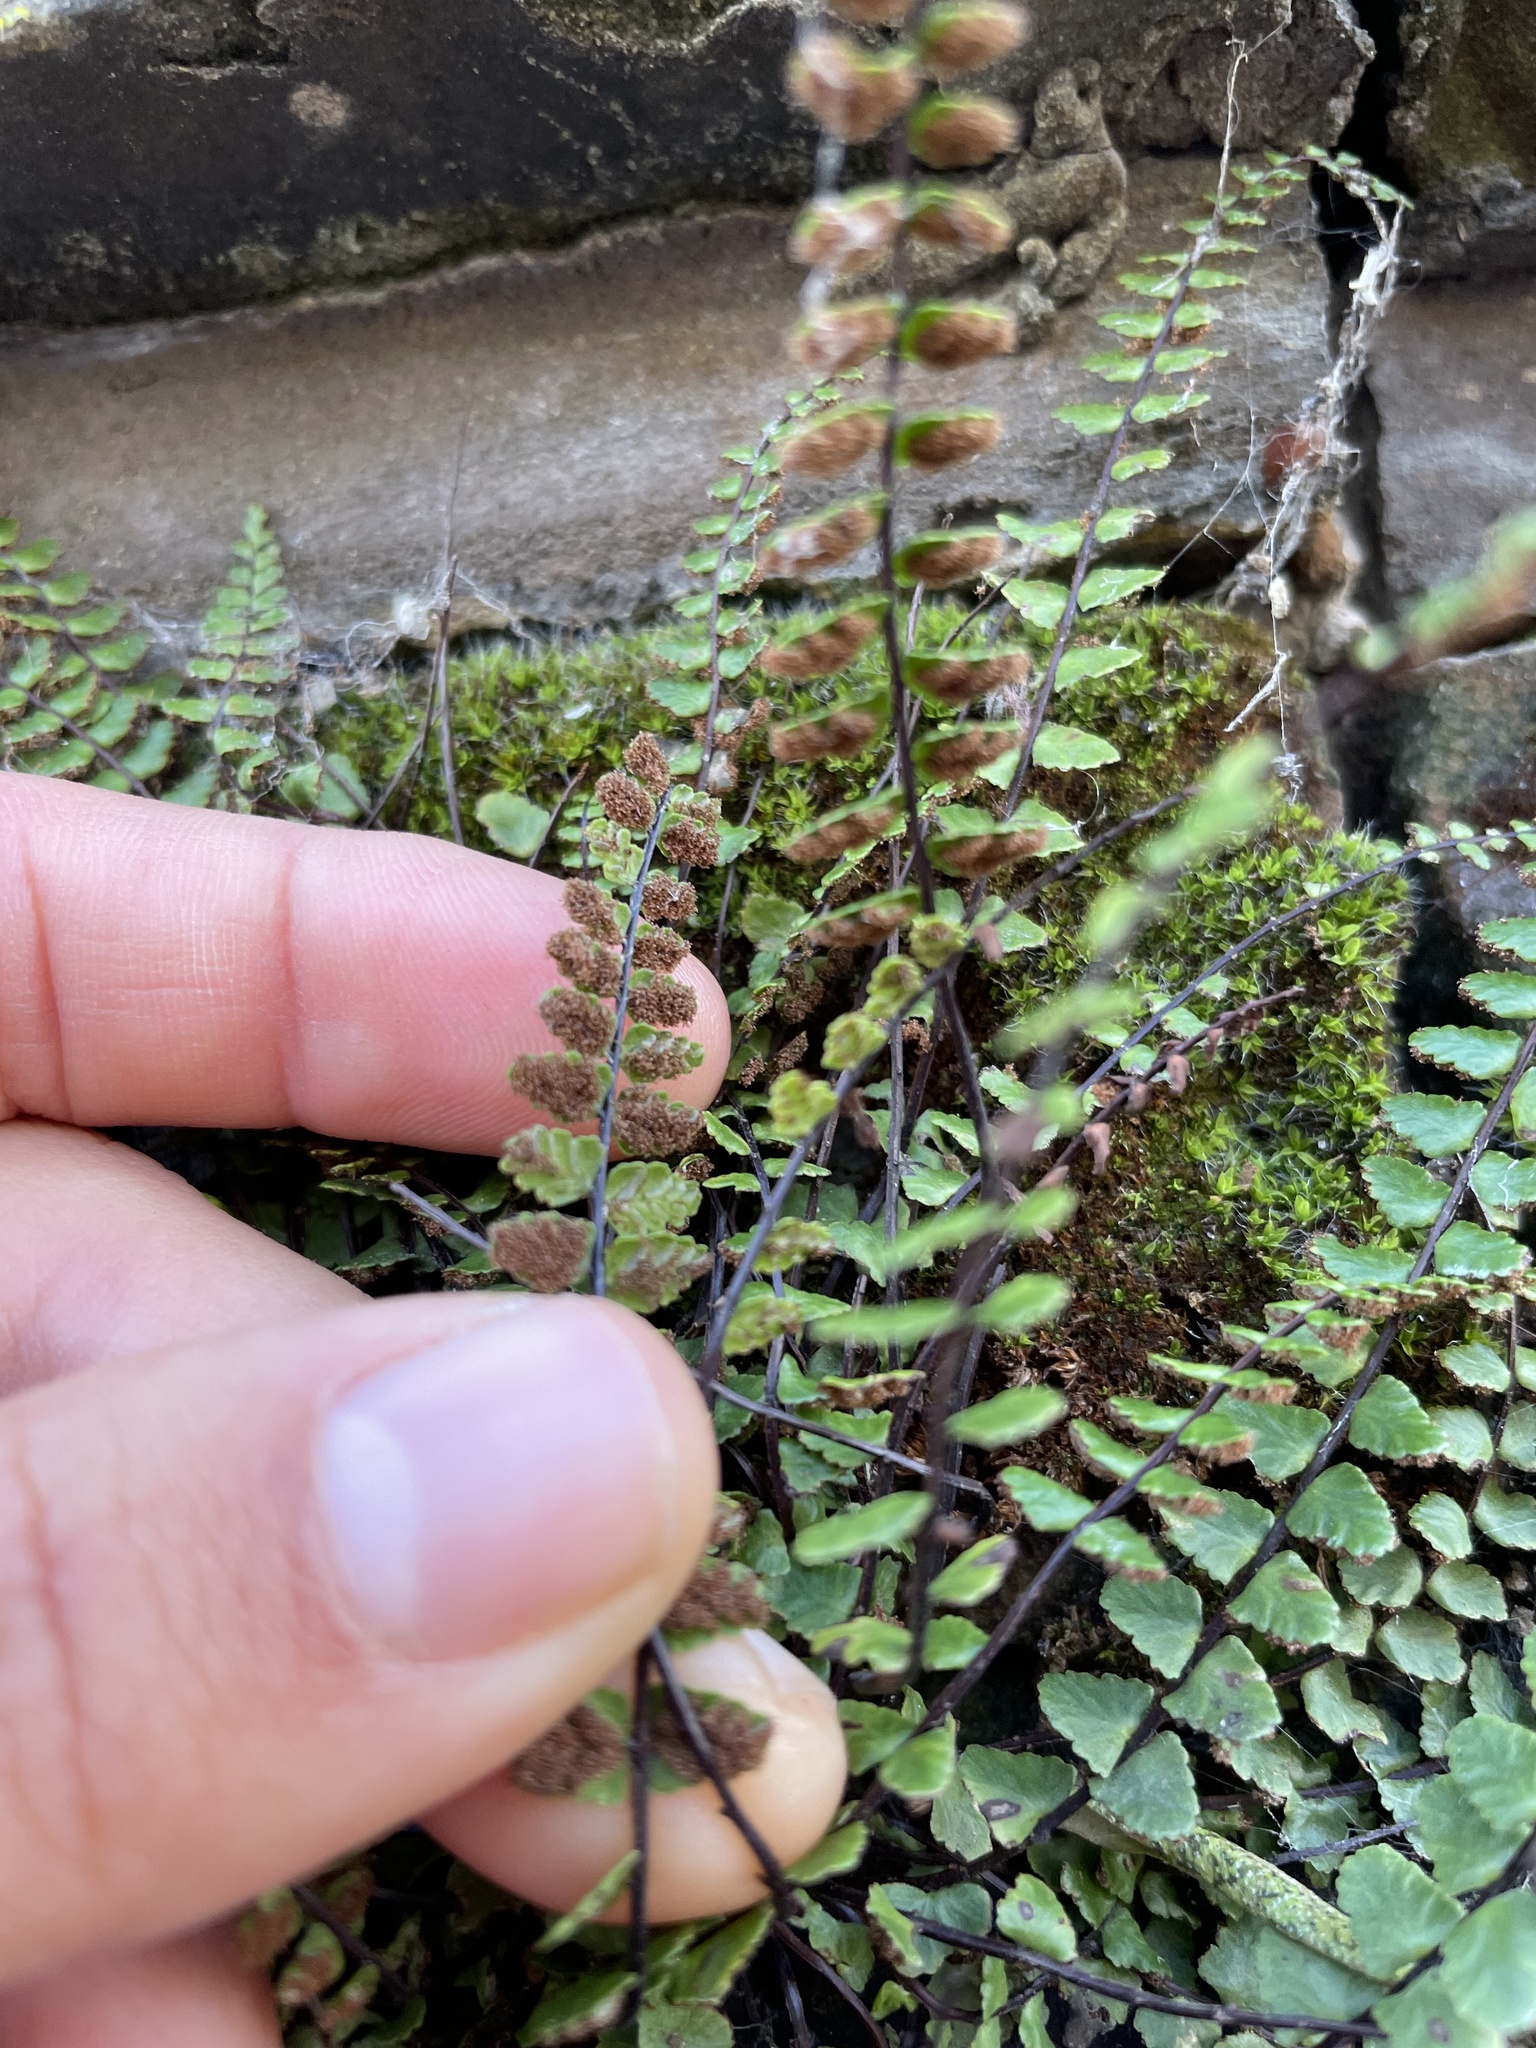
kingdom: Plantae
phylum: Tracheophyta
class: Polypodiopsida
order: Polypodiales
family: Aspleniaceae
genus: Asplenium
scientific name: Asplenium trichomanes
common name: Maidenhair spleenwort
